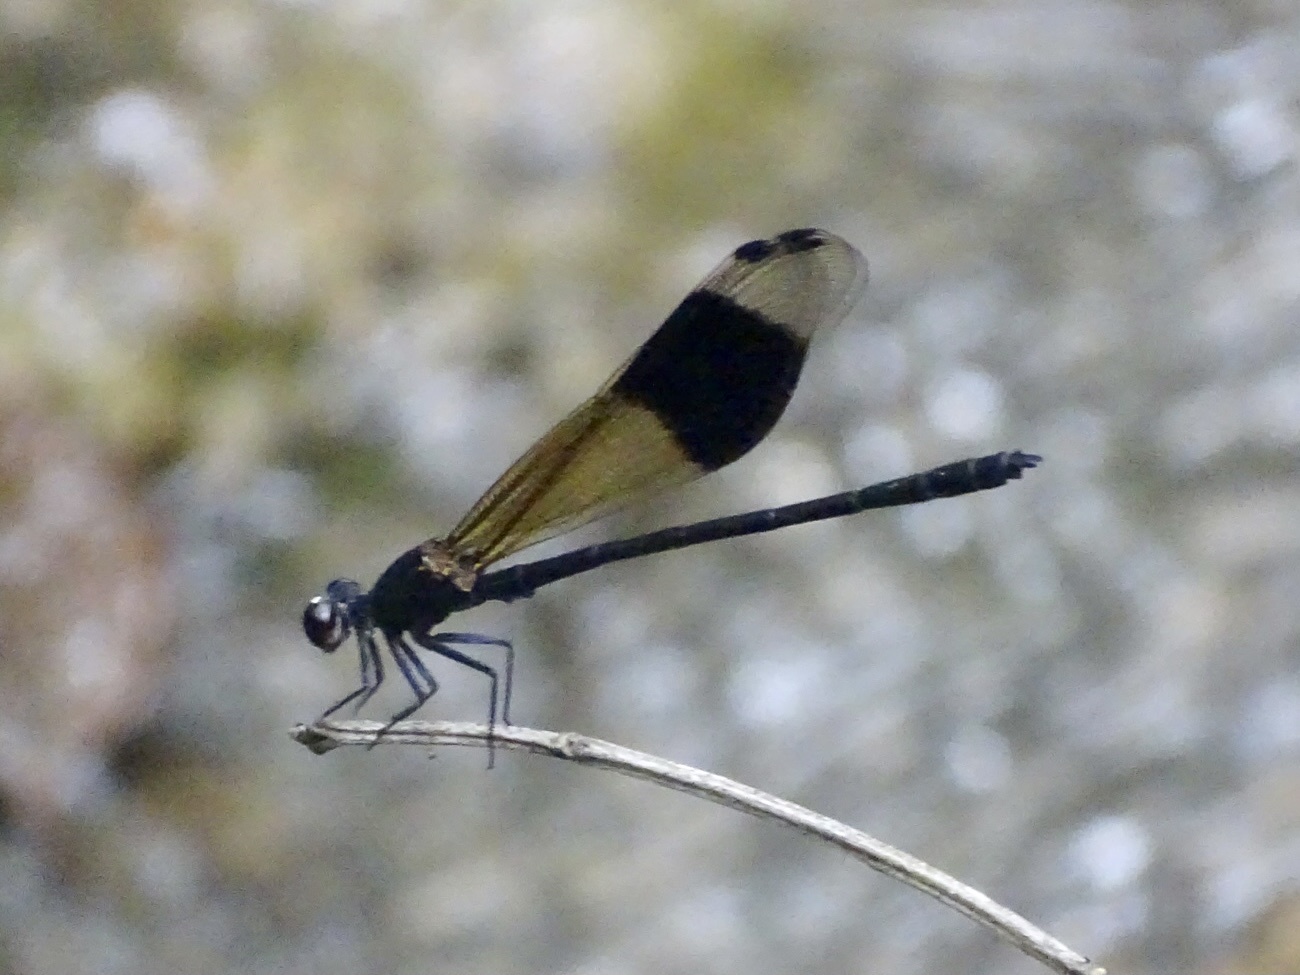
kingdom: Animalia
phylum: Arthropoda
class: Insecta
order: Odonata
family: Euphaeidae
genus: Euphaea
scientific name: Euphaea decorata
